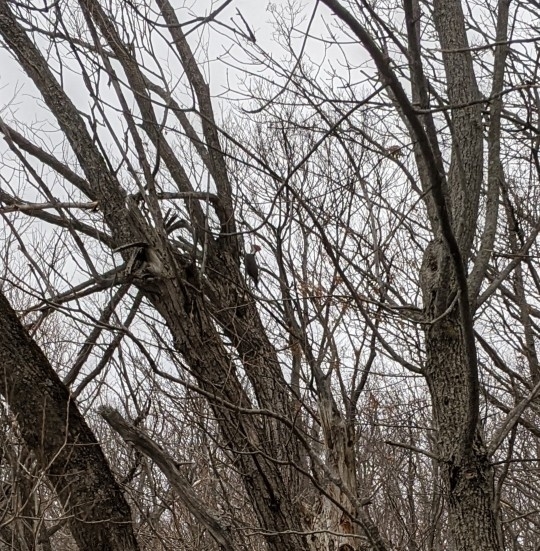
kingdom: Animalia
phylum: Chordata
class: Aves
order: Piciformes
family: Picidae
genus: Dryocopus
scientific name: Dryocopus pileatus
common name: Pileated woodpecker
